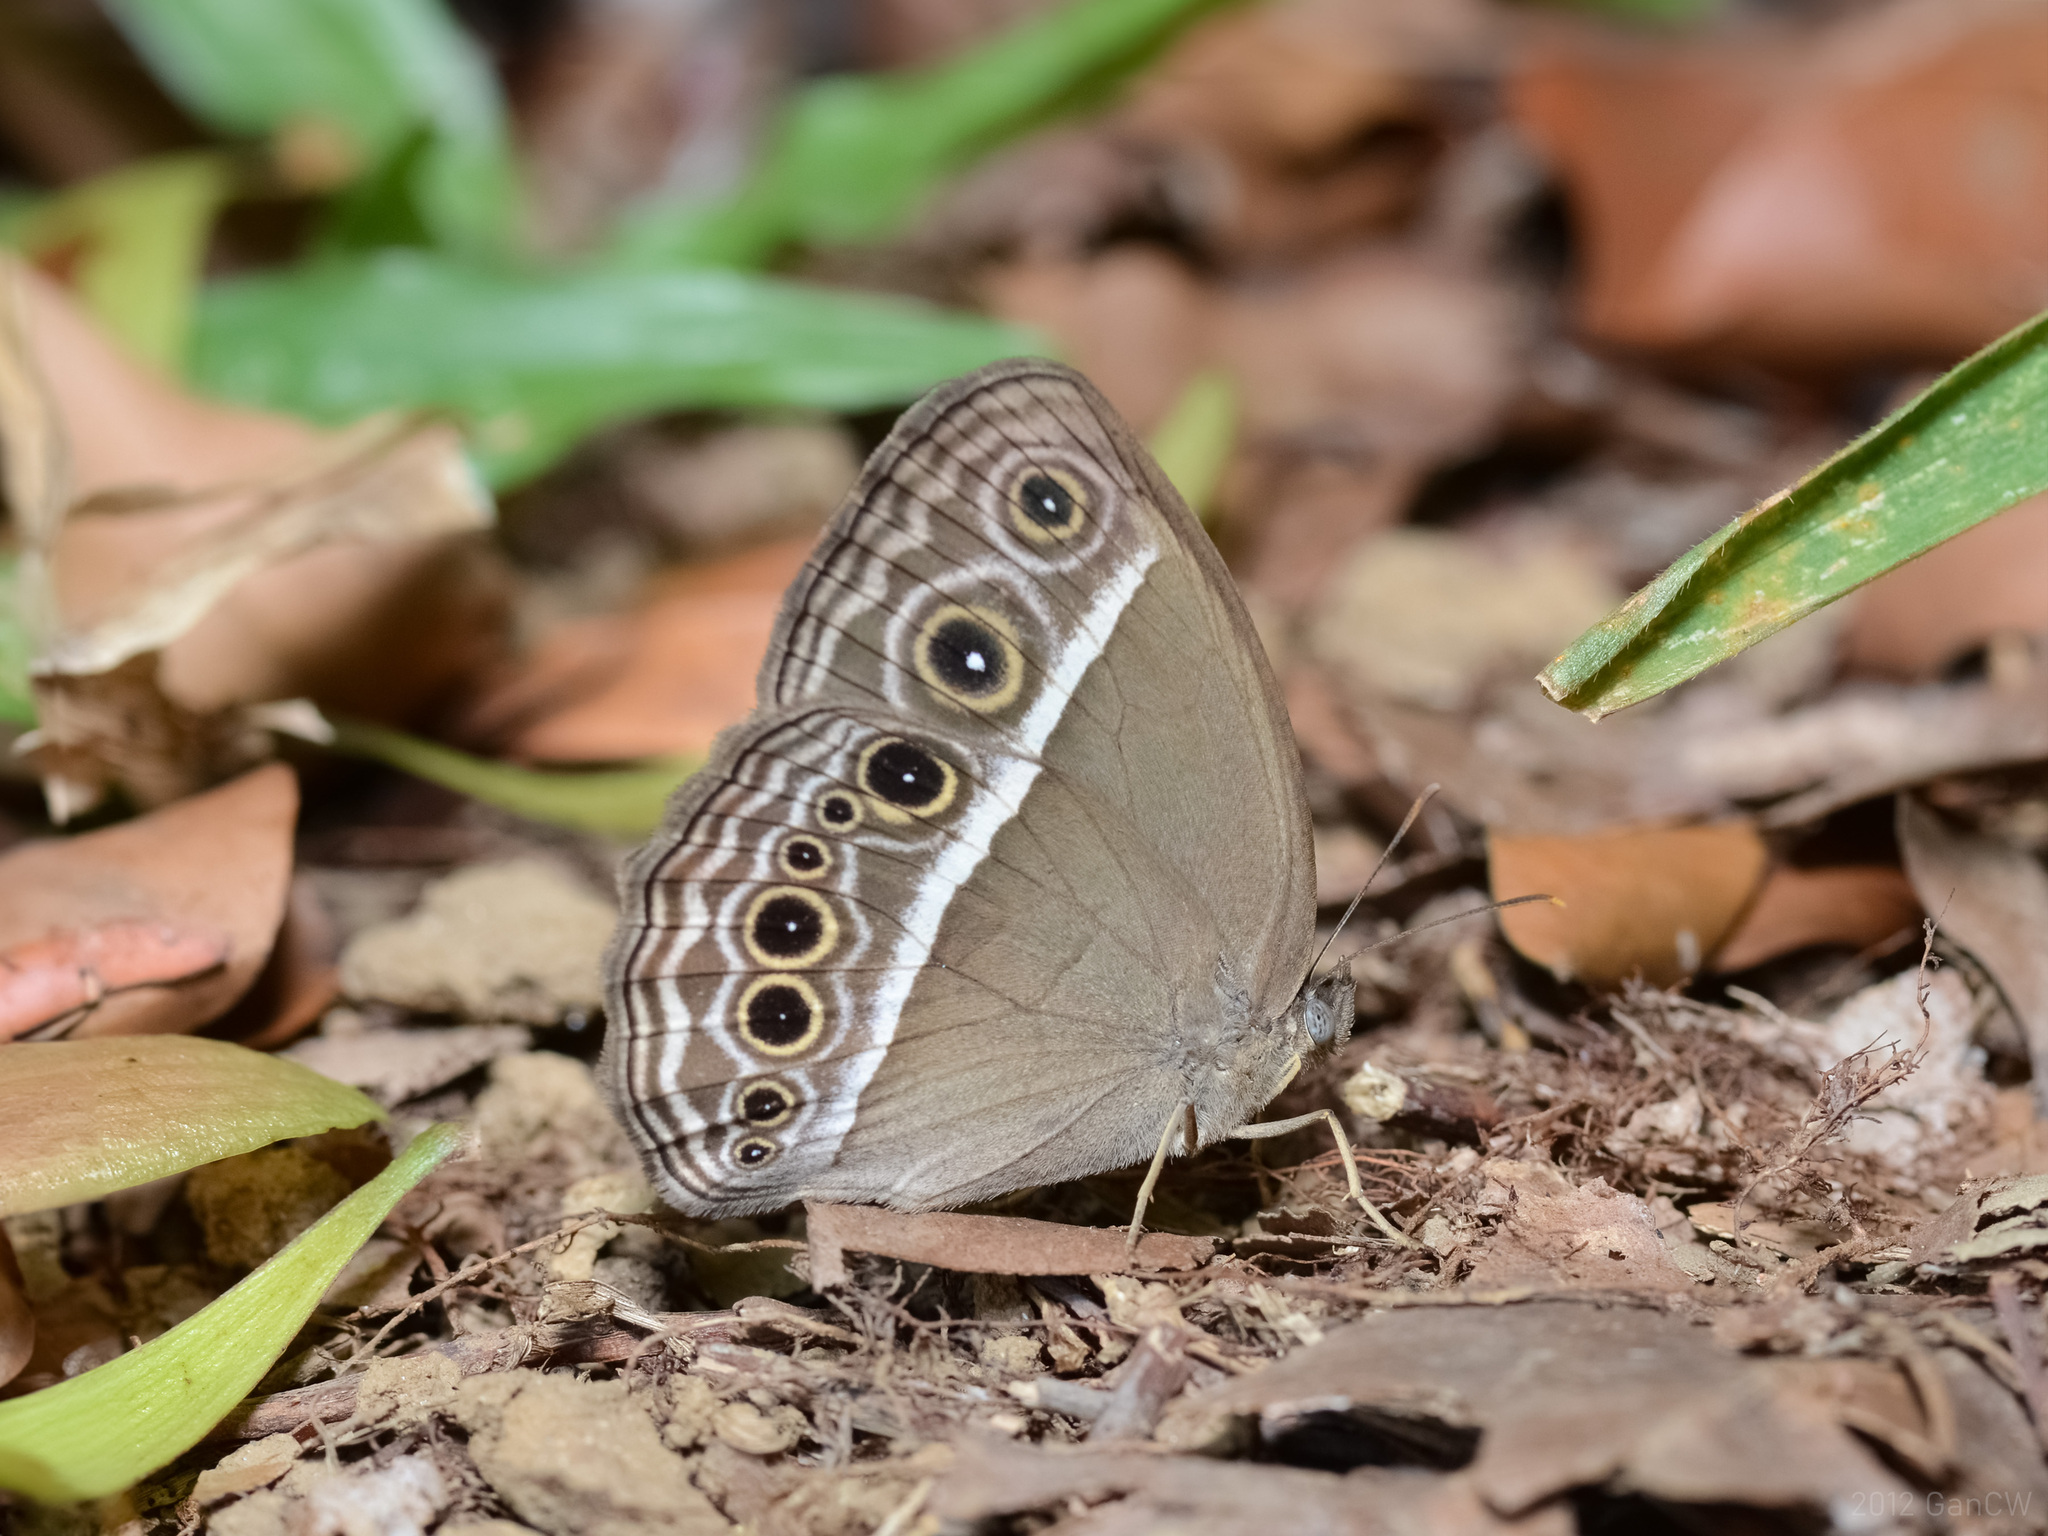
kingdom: Animalia
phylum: Arthropoda
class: Insecta
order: Lepidoptera
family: Nymphalidae
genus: Mycalesis
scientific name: Mycalesis mineus
